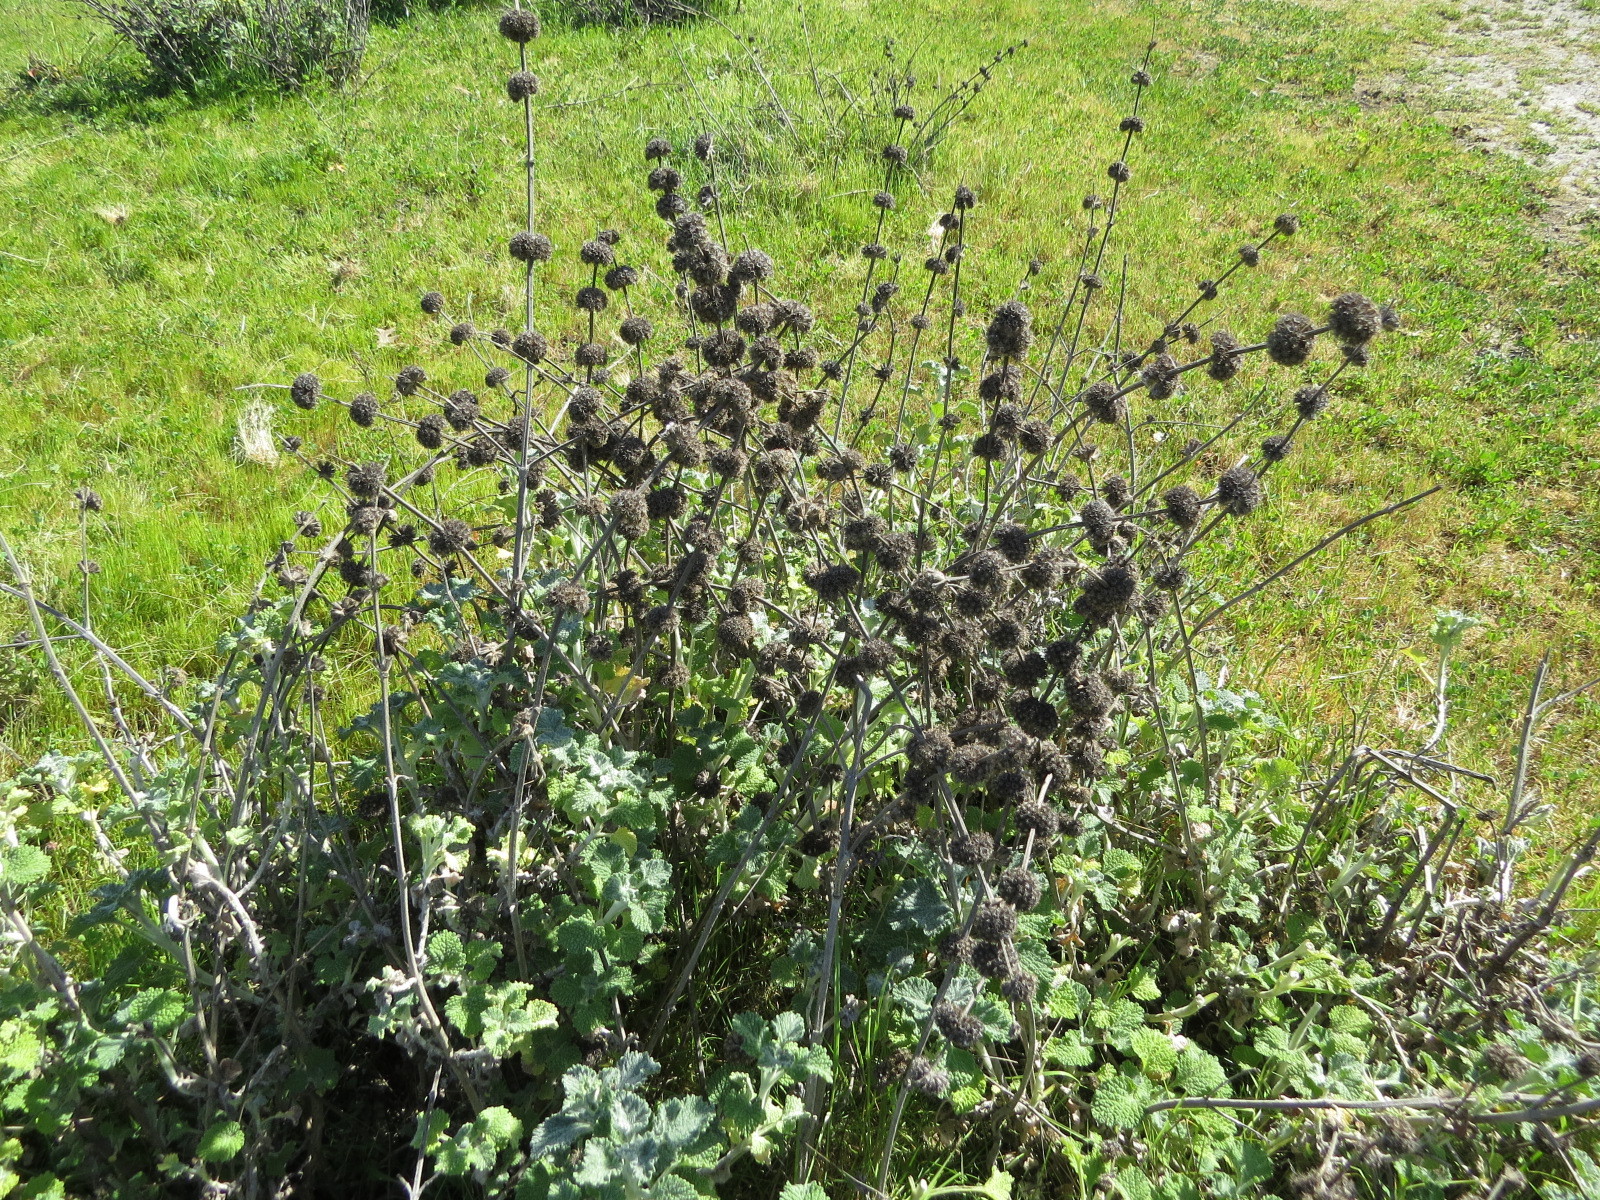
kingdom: Plantae
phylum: Tracheophyta
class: Magnoliopsida
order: Lamiales
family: Lamiaceae
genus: Marrubium
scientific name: Marrubium vulgare
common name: Horehound
